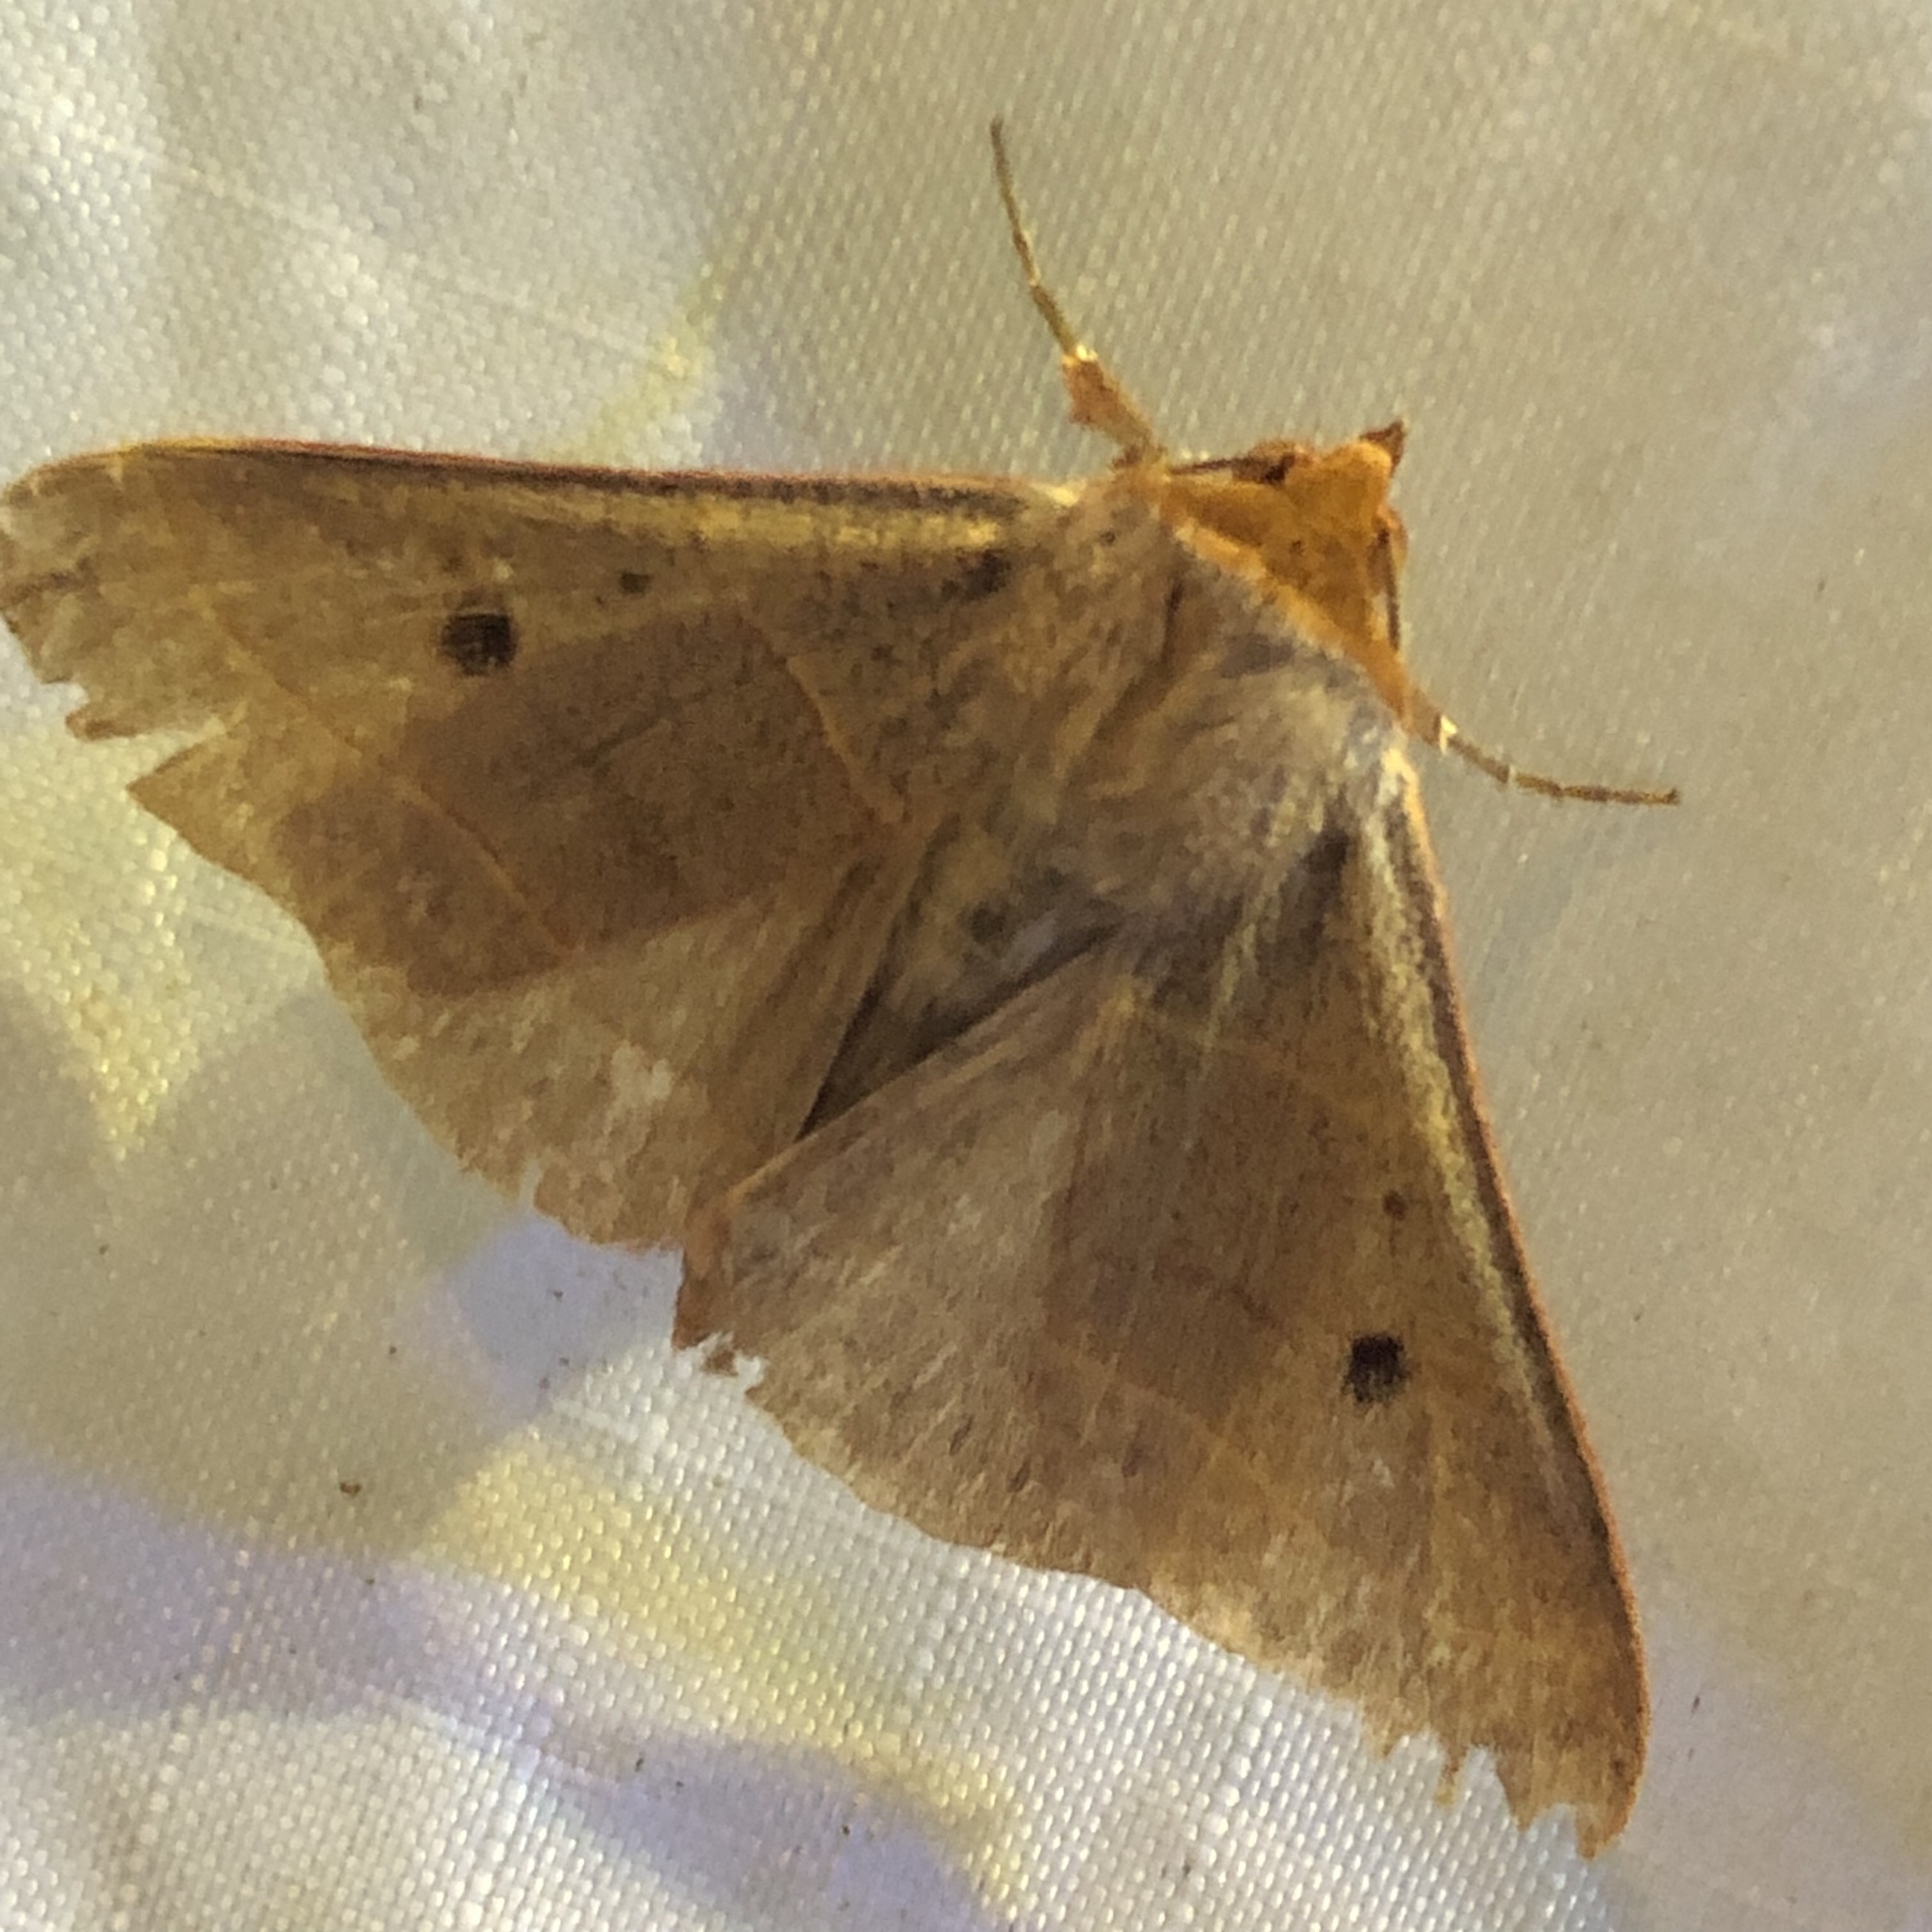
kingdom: Animalia
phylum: Arthropoda
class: Insecta
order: Lepidoptera
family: Erebidae
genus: Panopoda
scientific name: Panopoda rufimargo
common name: Red-lined panopoda moth
